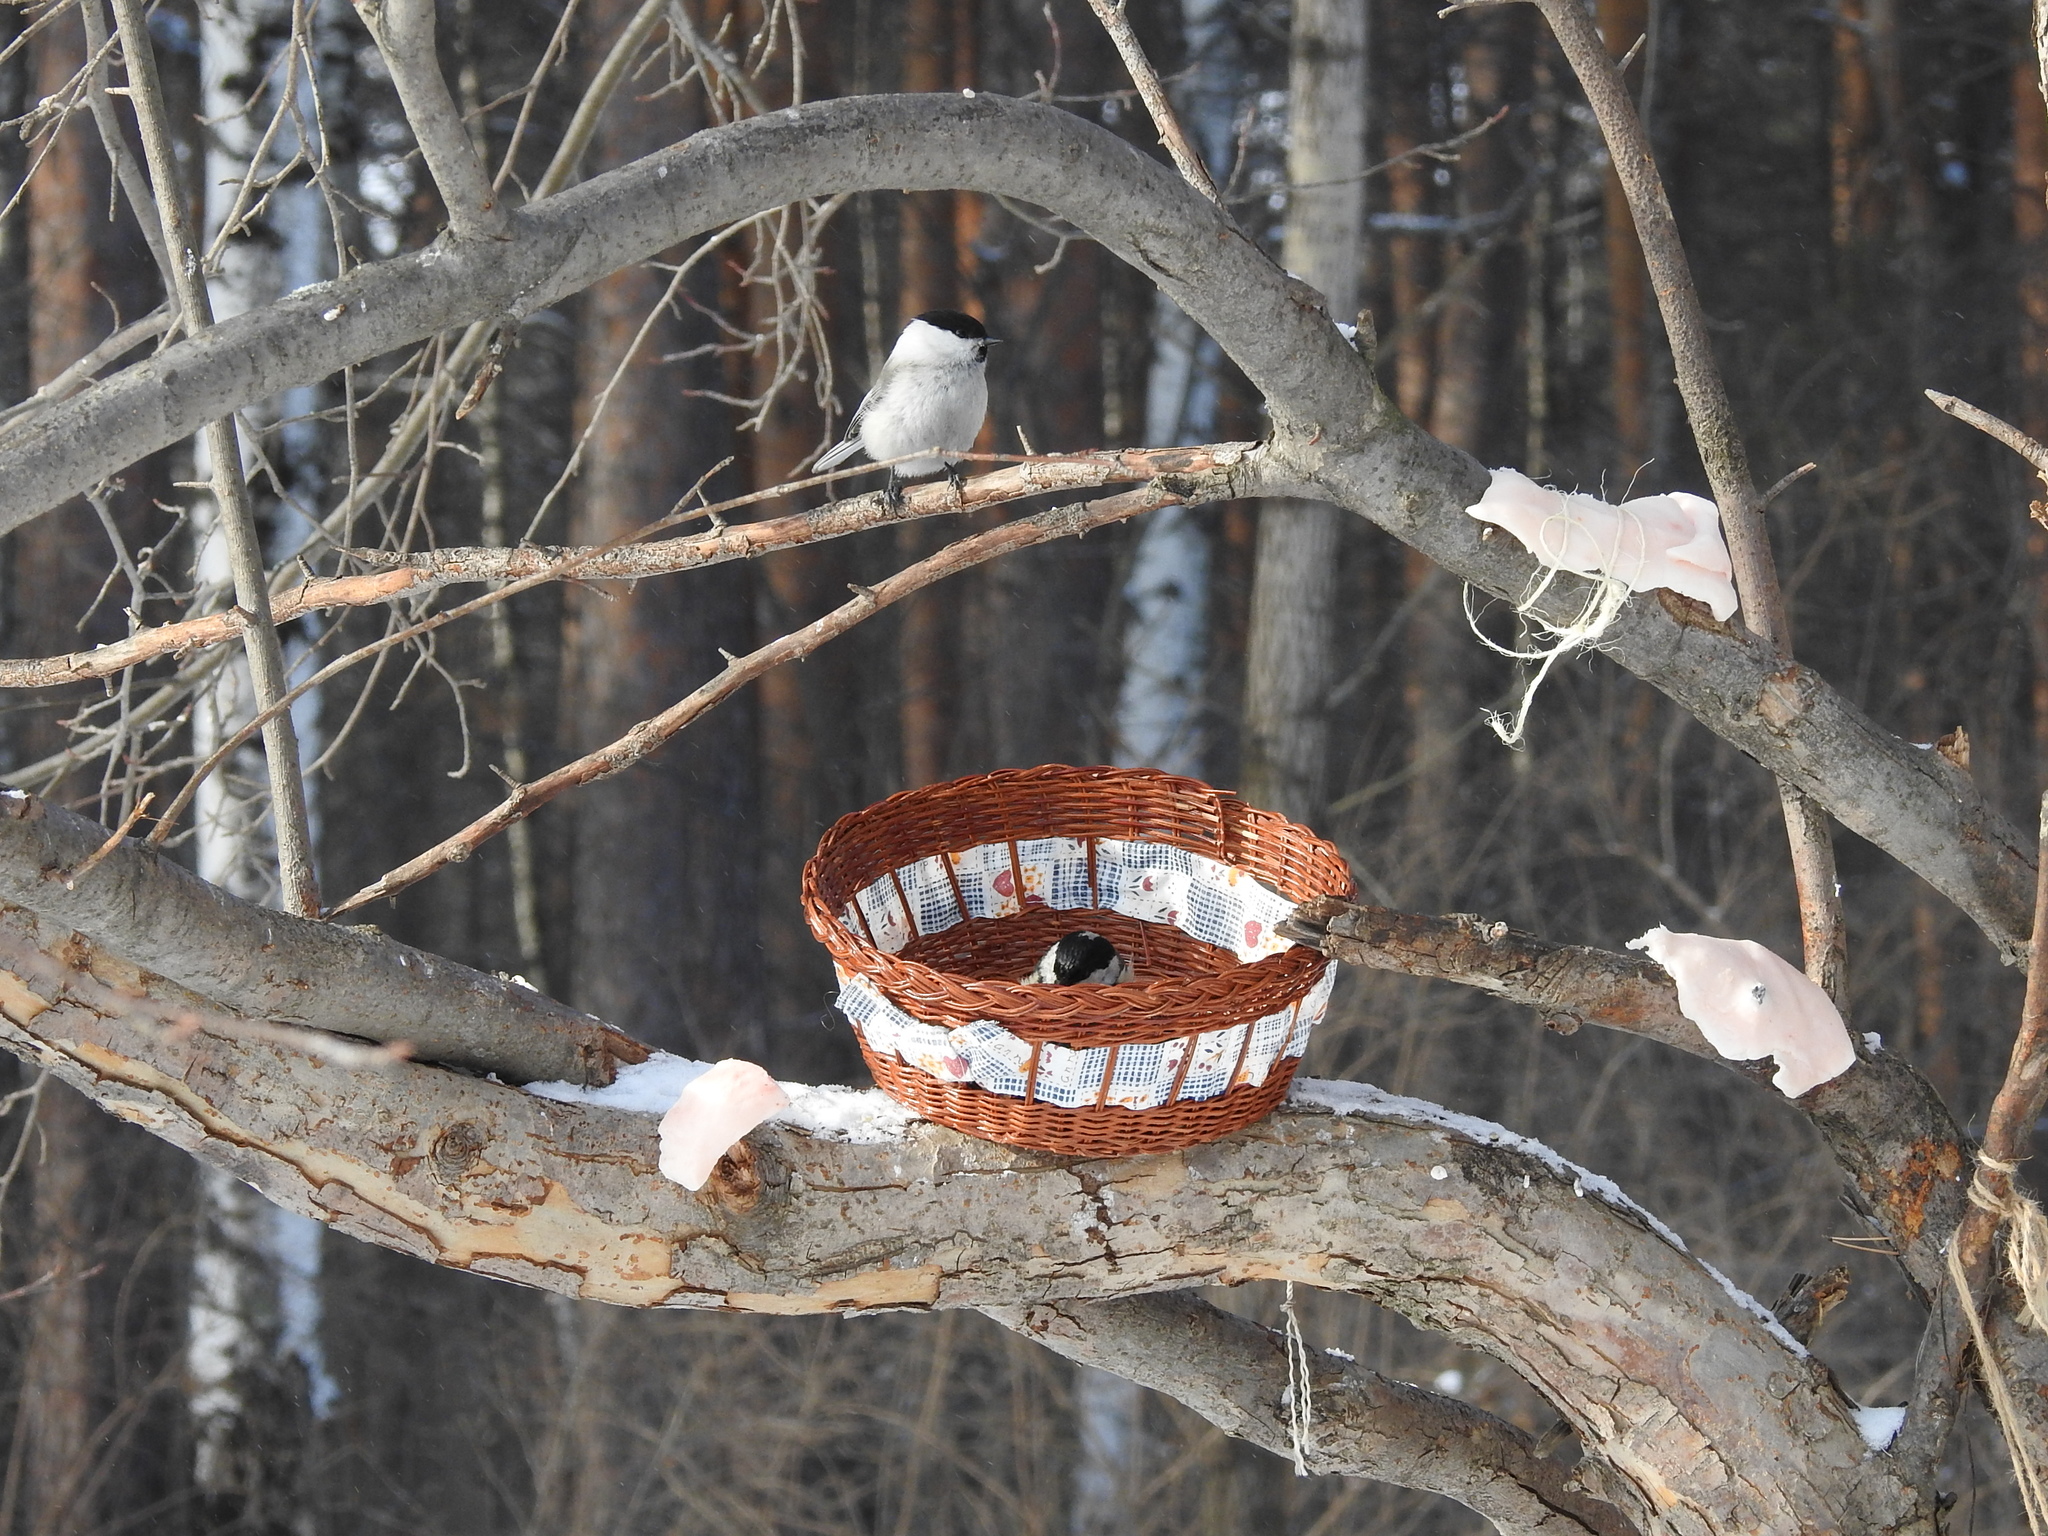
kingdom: Animalia
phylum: Chordata
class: Aves
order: Passeriformes
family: Paridae
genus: Poecile
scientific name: Poecile montanus
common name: Willow tit
